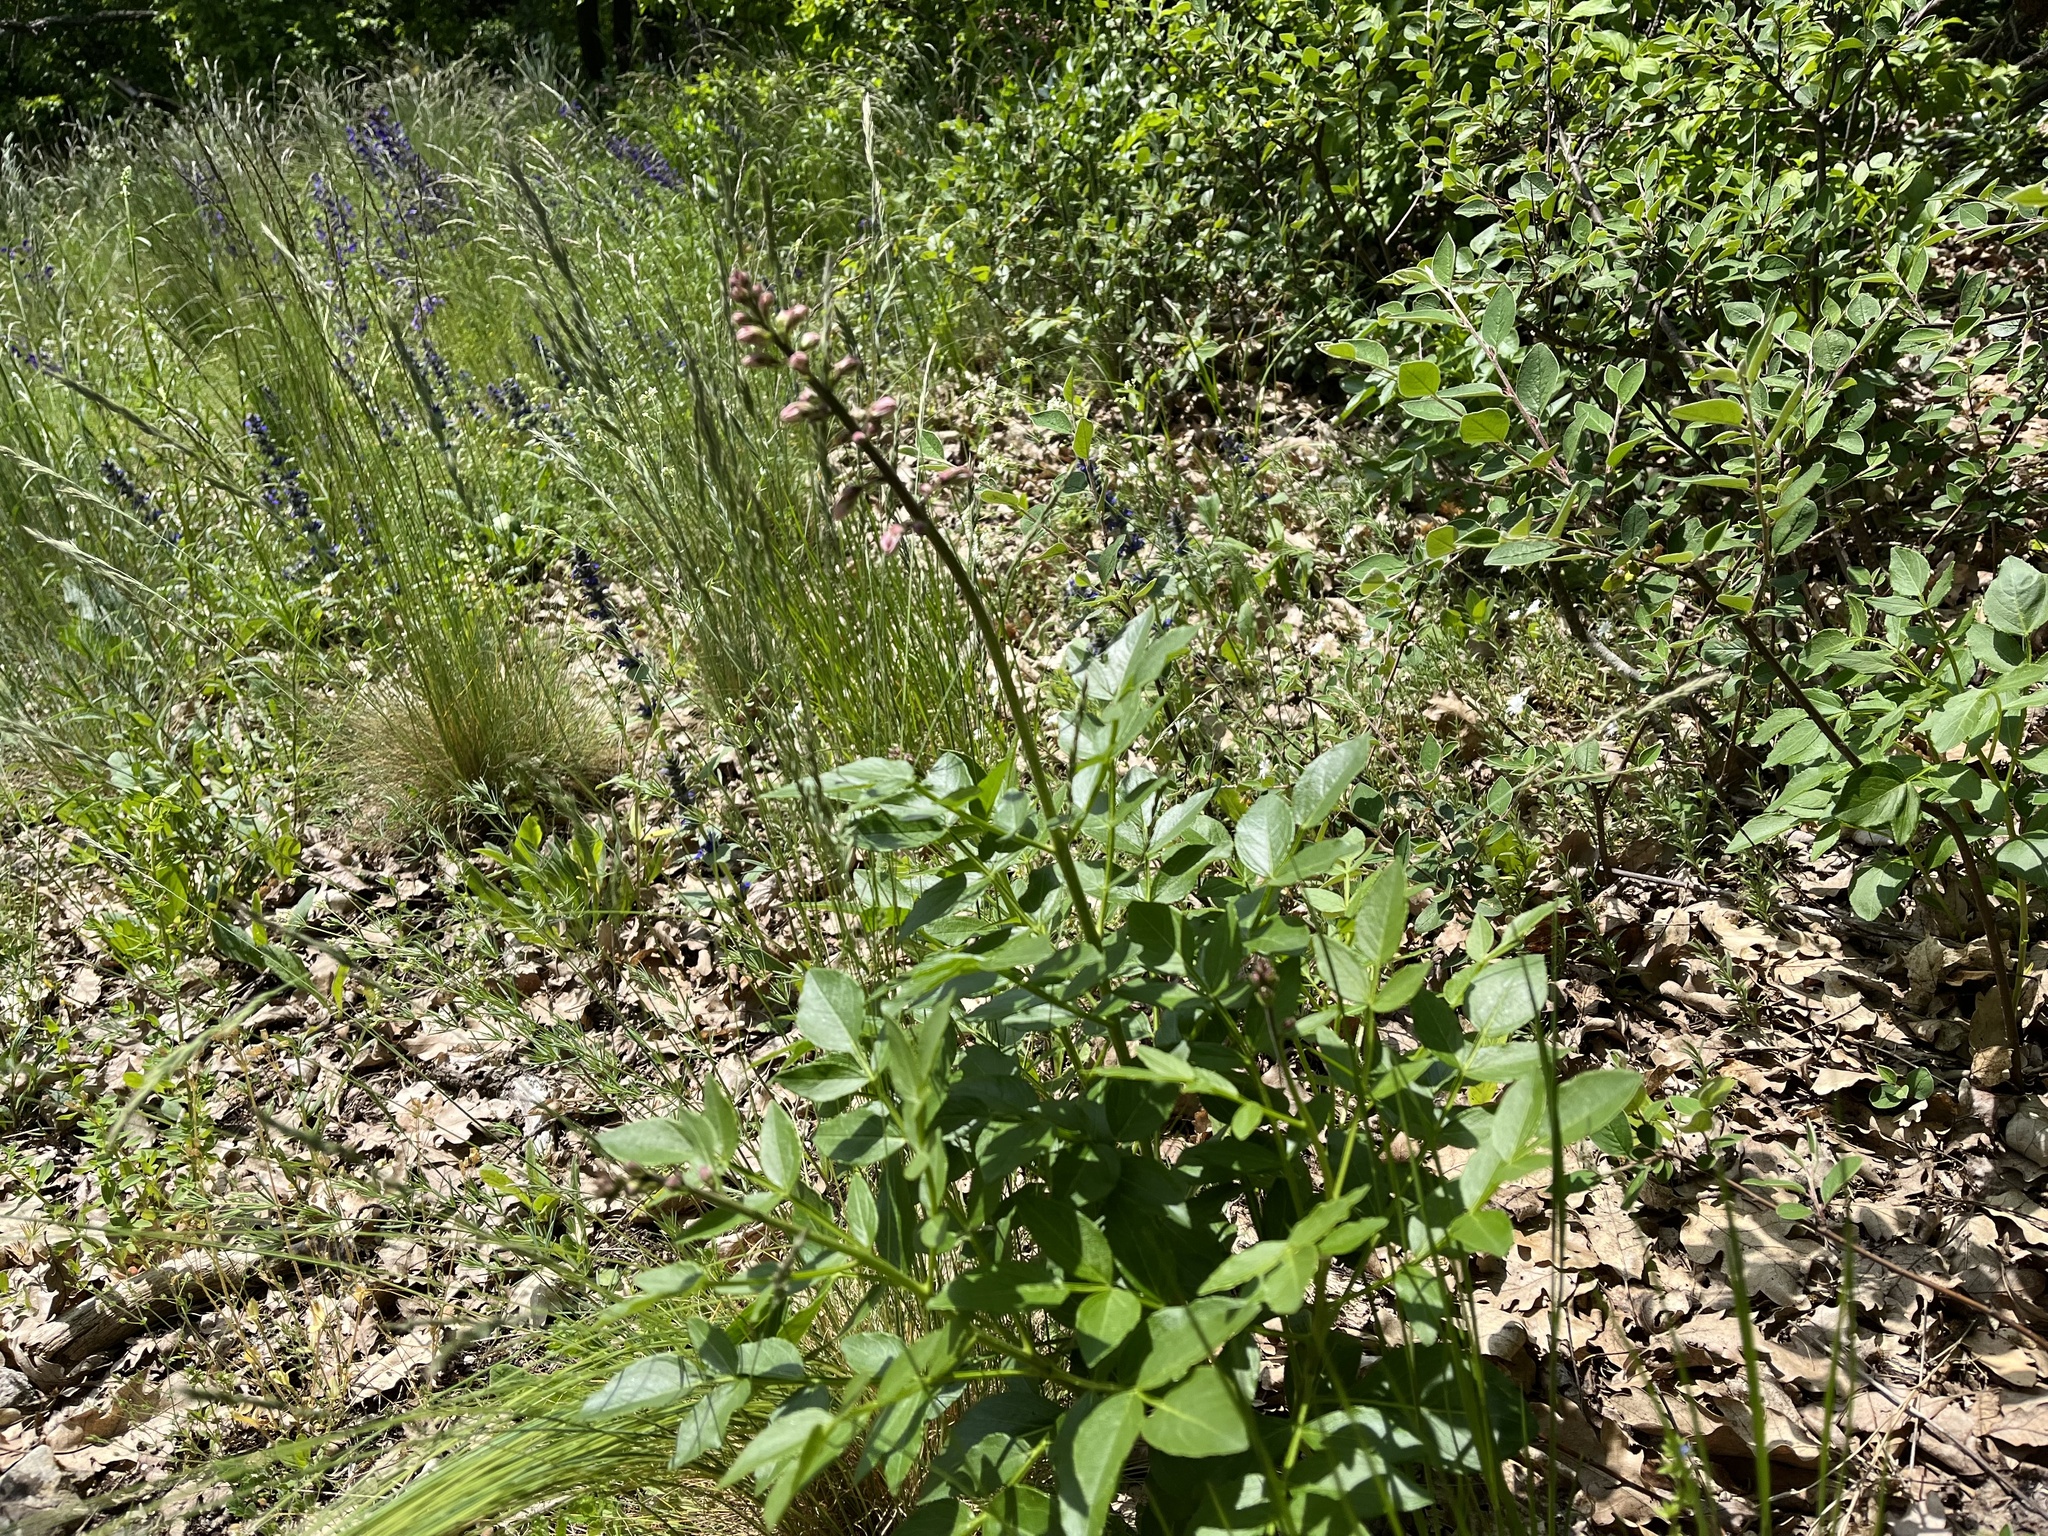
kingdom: Plantae
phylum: Tracheophyta
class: Magnoliopsida
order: Sapindales
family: Rutaceae
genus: Dictamnus
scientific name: Dictamnus albus
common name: Gasplant
